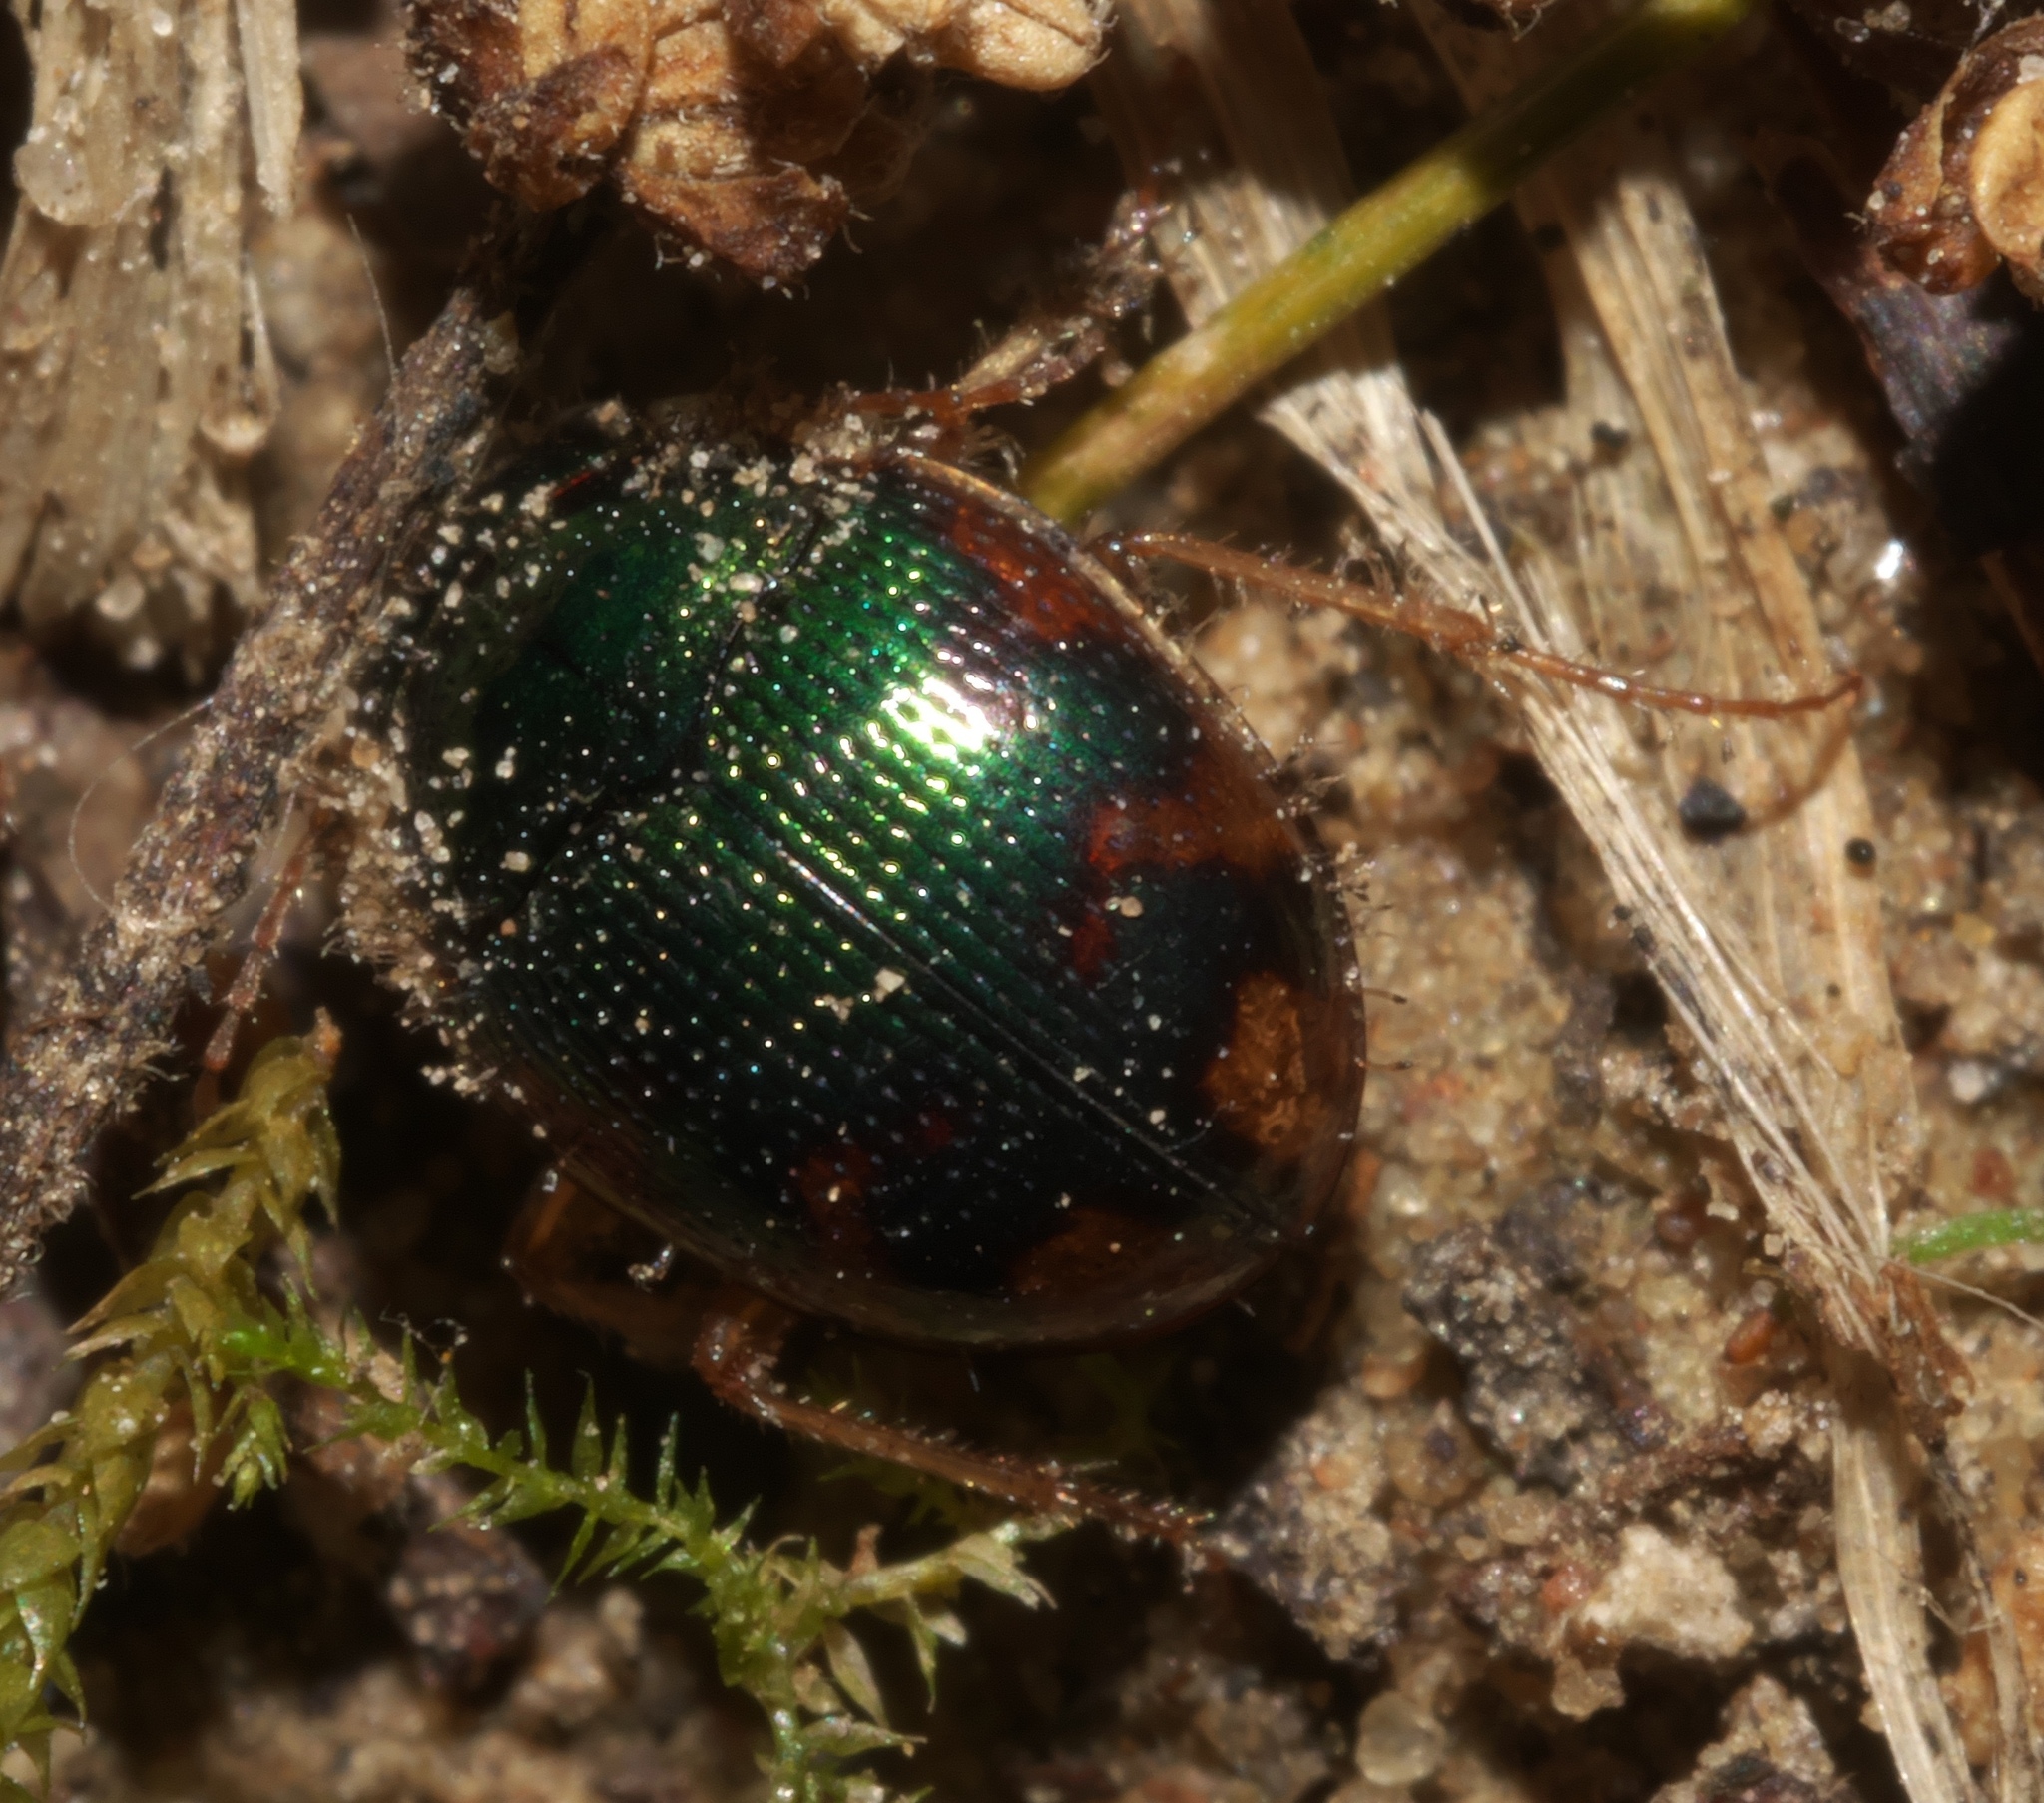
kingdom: Animalia
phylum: Arthropoda
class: Insecta
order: Coleoptera
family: Carabidae
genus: Omophron
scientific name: Omophron nitidum
